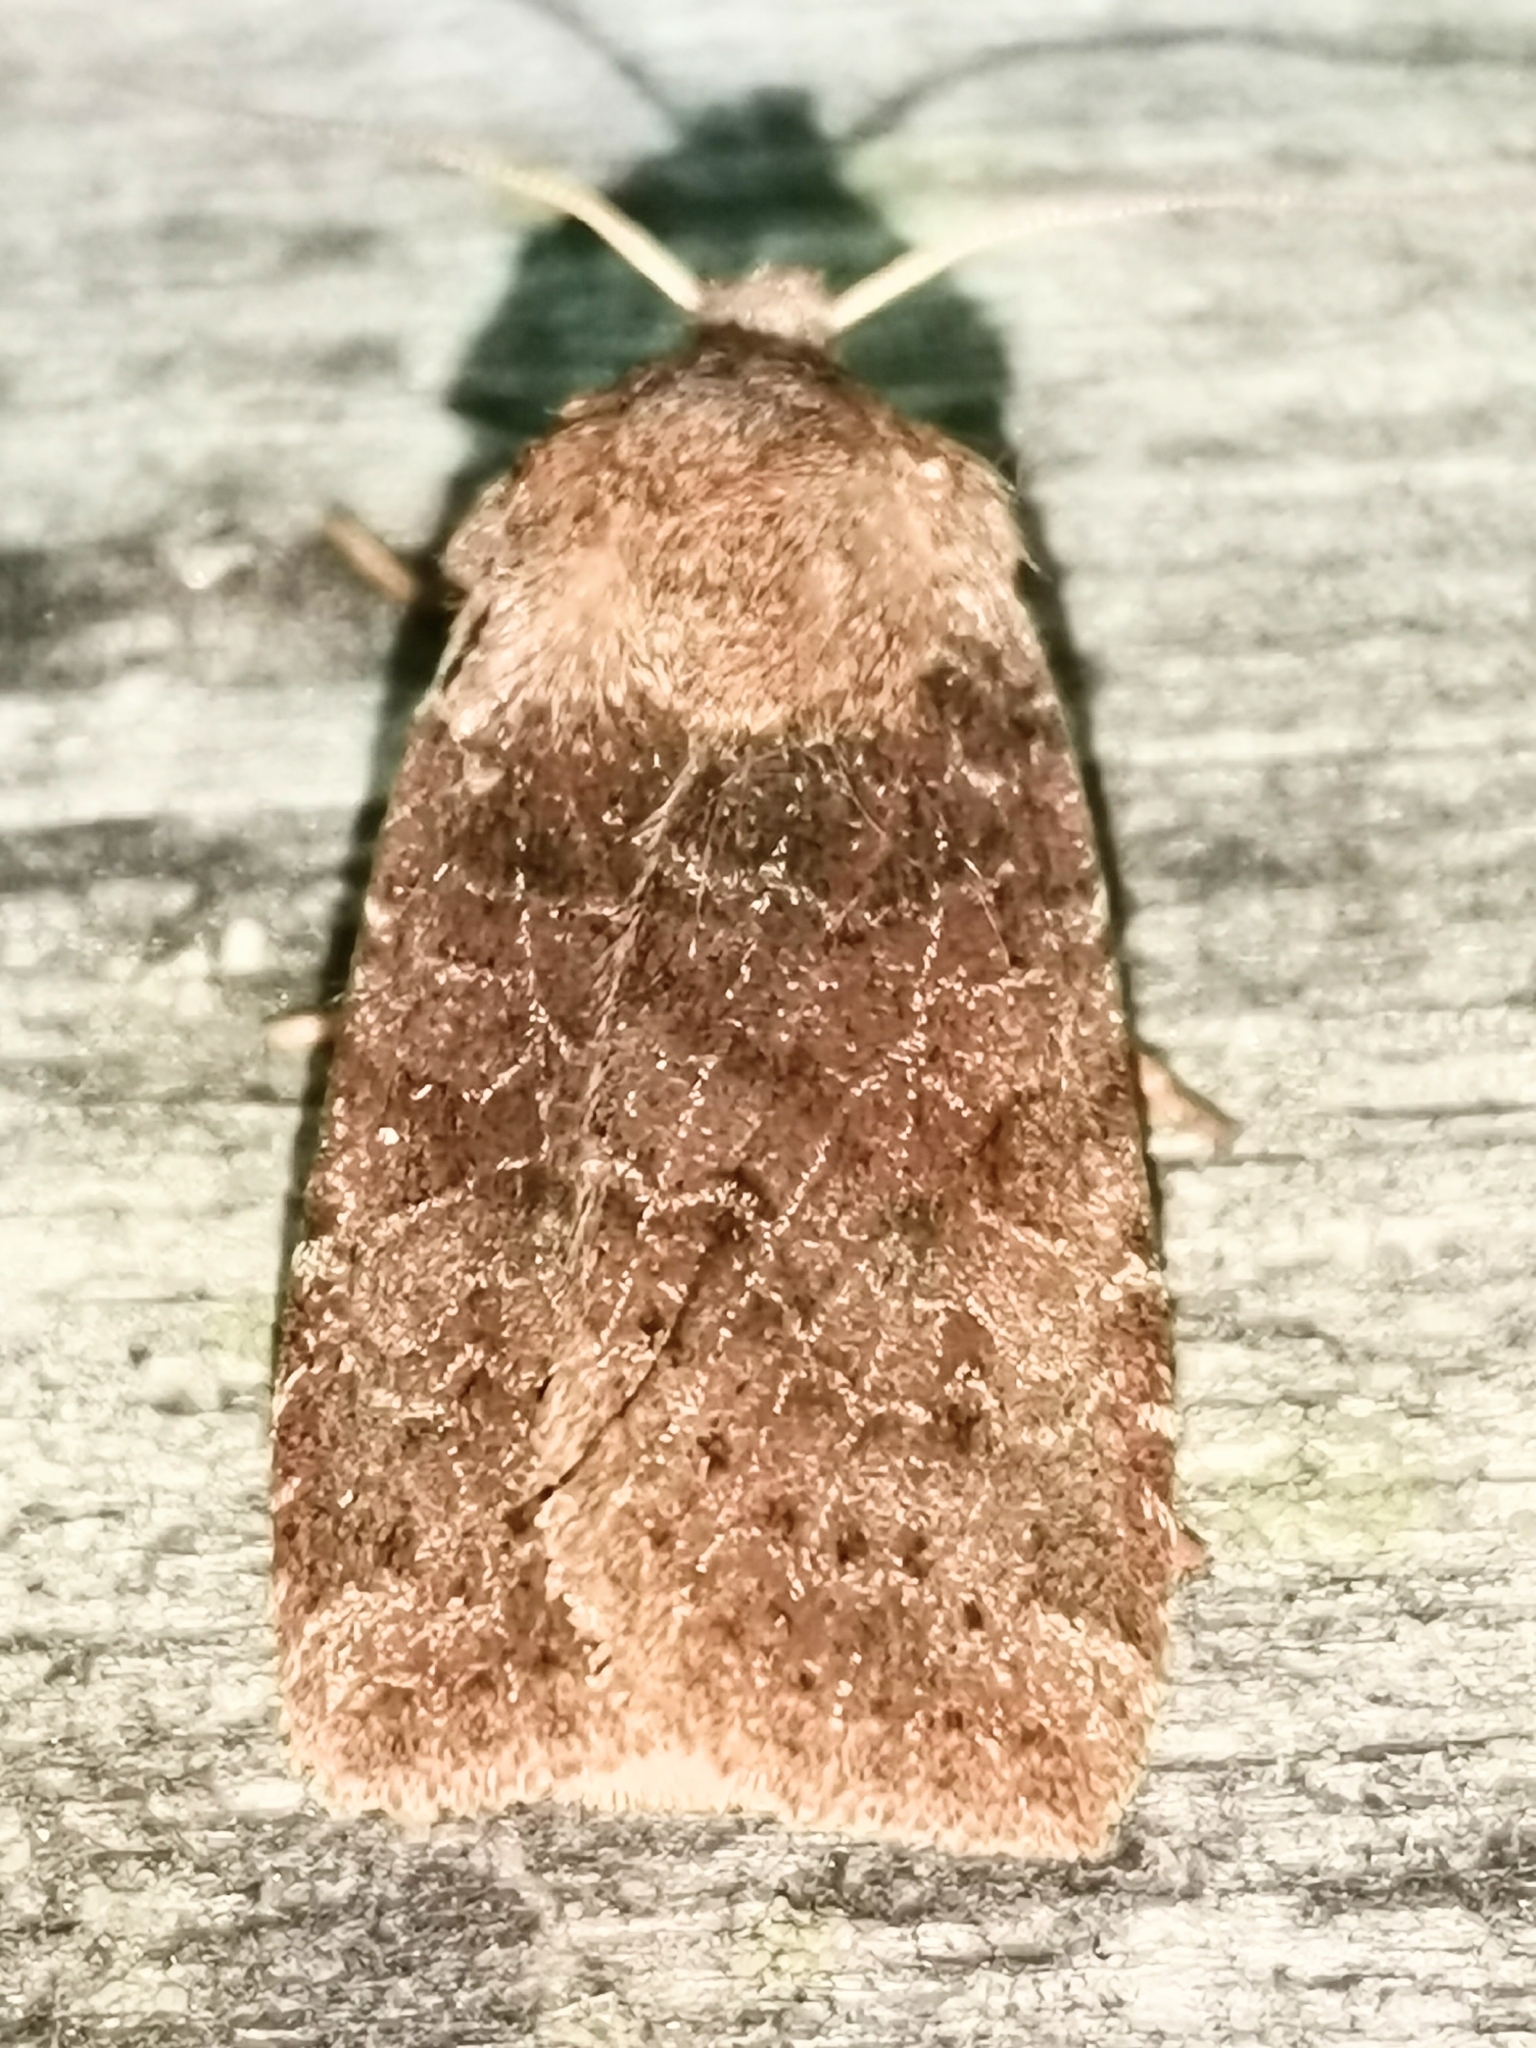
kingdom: Animalia
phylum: Arthropoda
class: Insecta
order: Lepidoptera
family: Noctuidae
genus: Conistra
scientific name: Conistra vaccinii
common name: Chestnut
